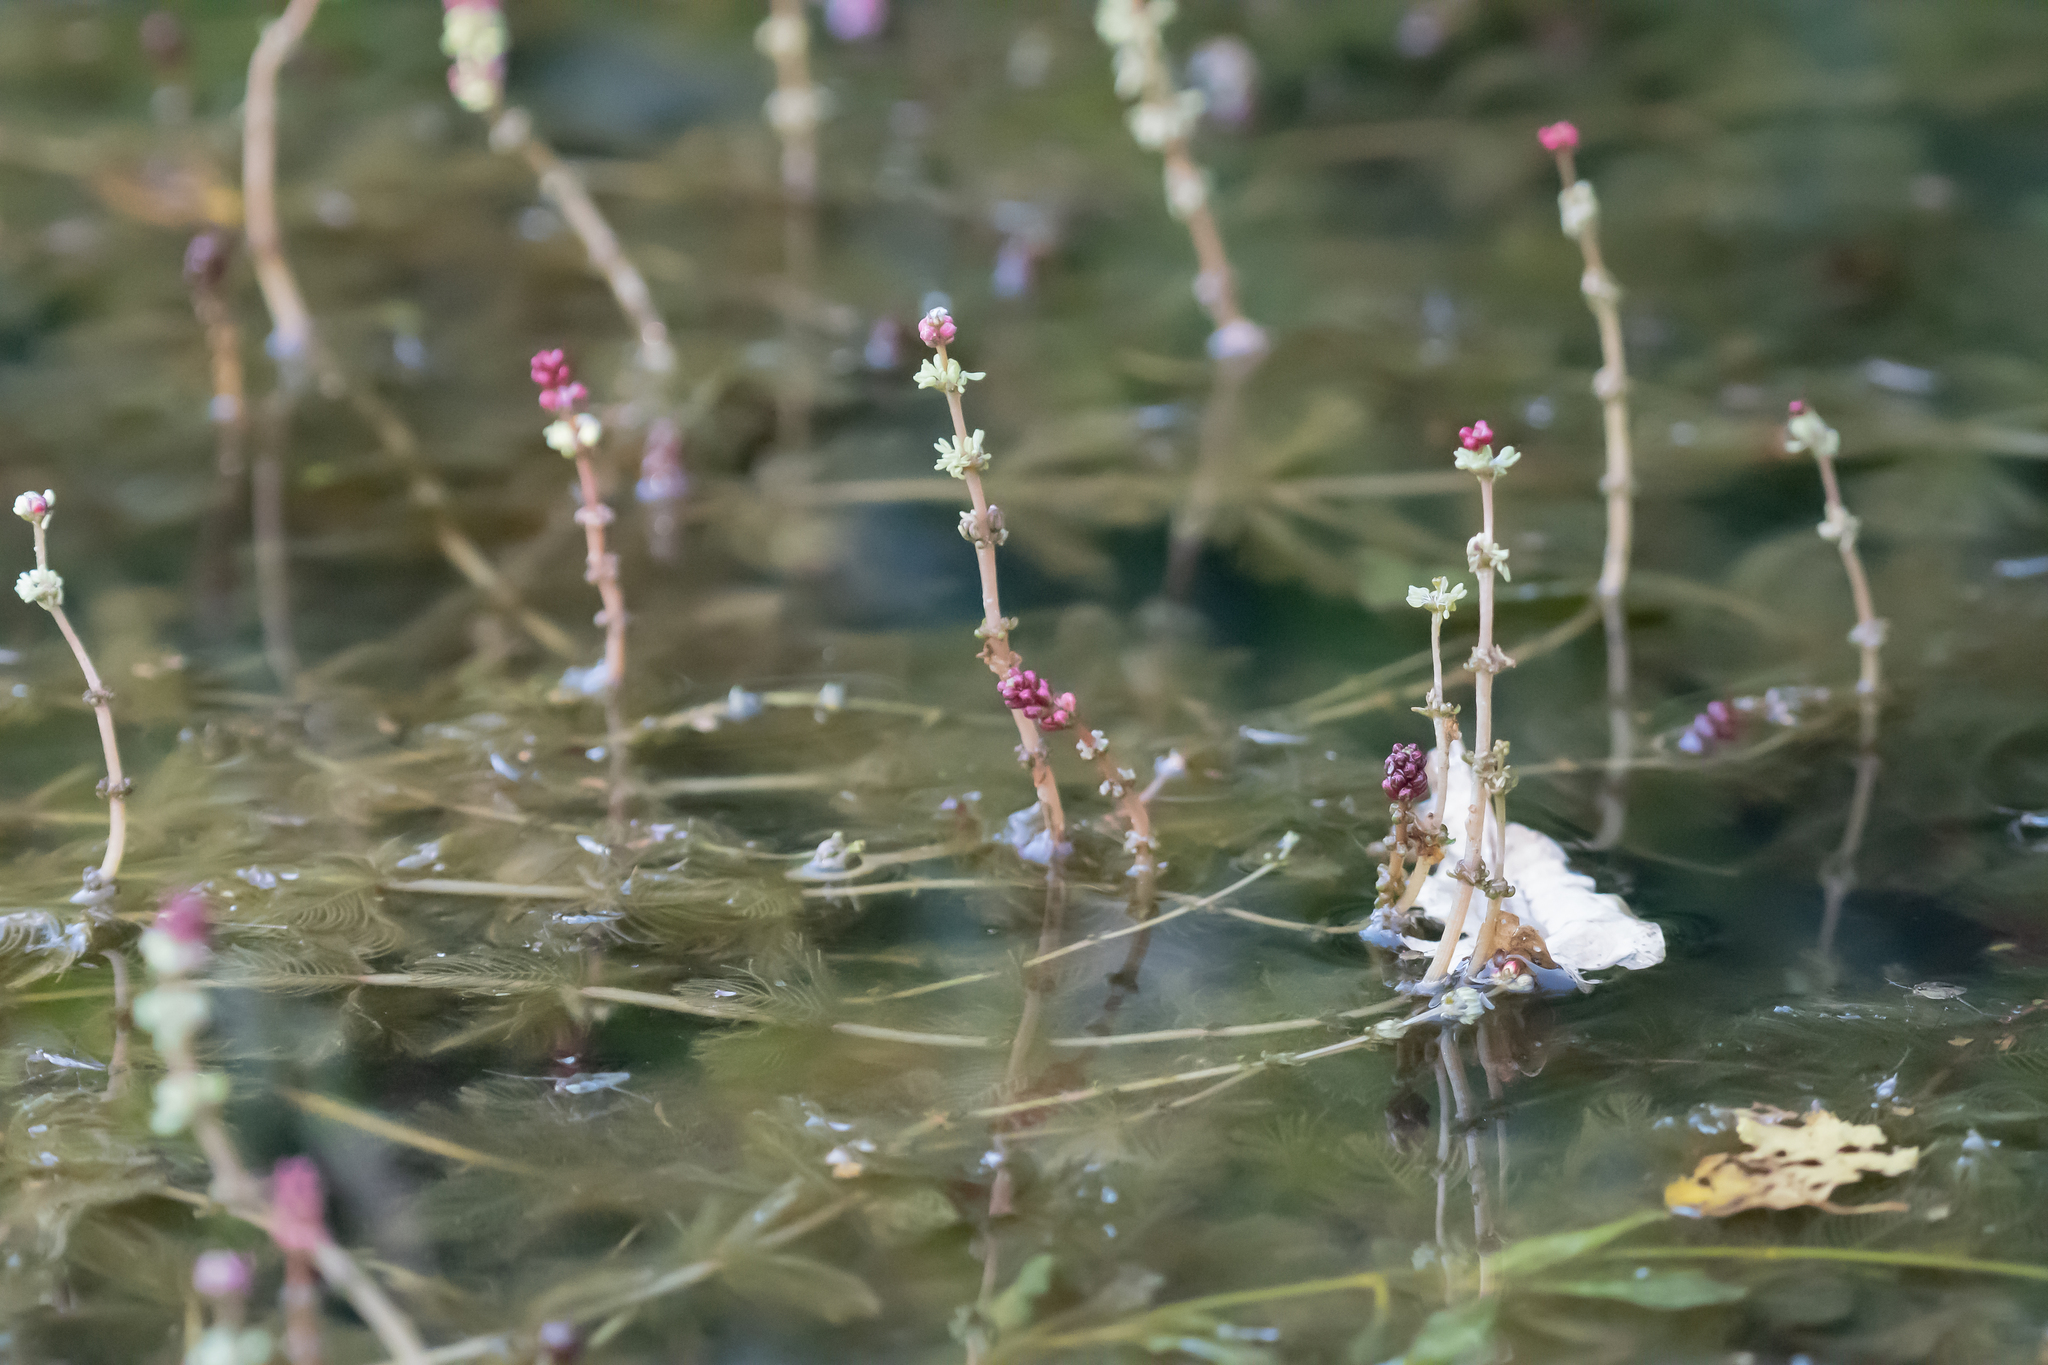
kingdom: Plantae
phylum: Tracheophyta
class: Magnoliopsida
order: Saxifragales
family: Haloragaceae
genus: Myriophyllum
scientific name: Myriophyllum spicatum
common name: Spiked water-milfoil
